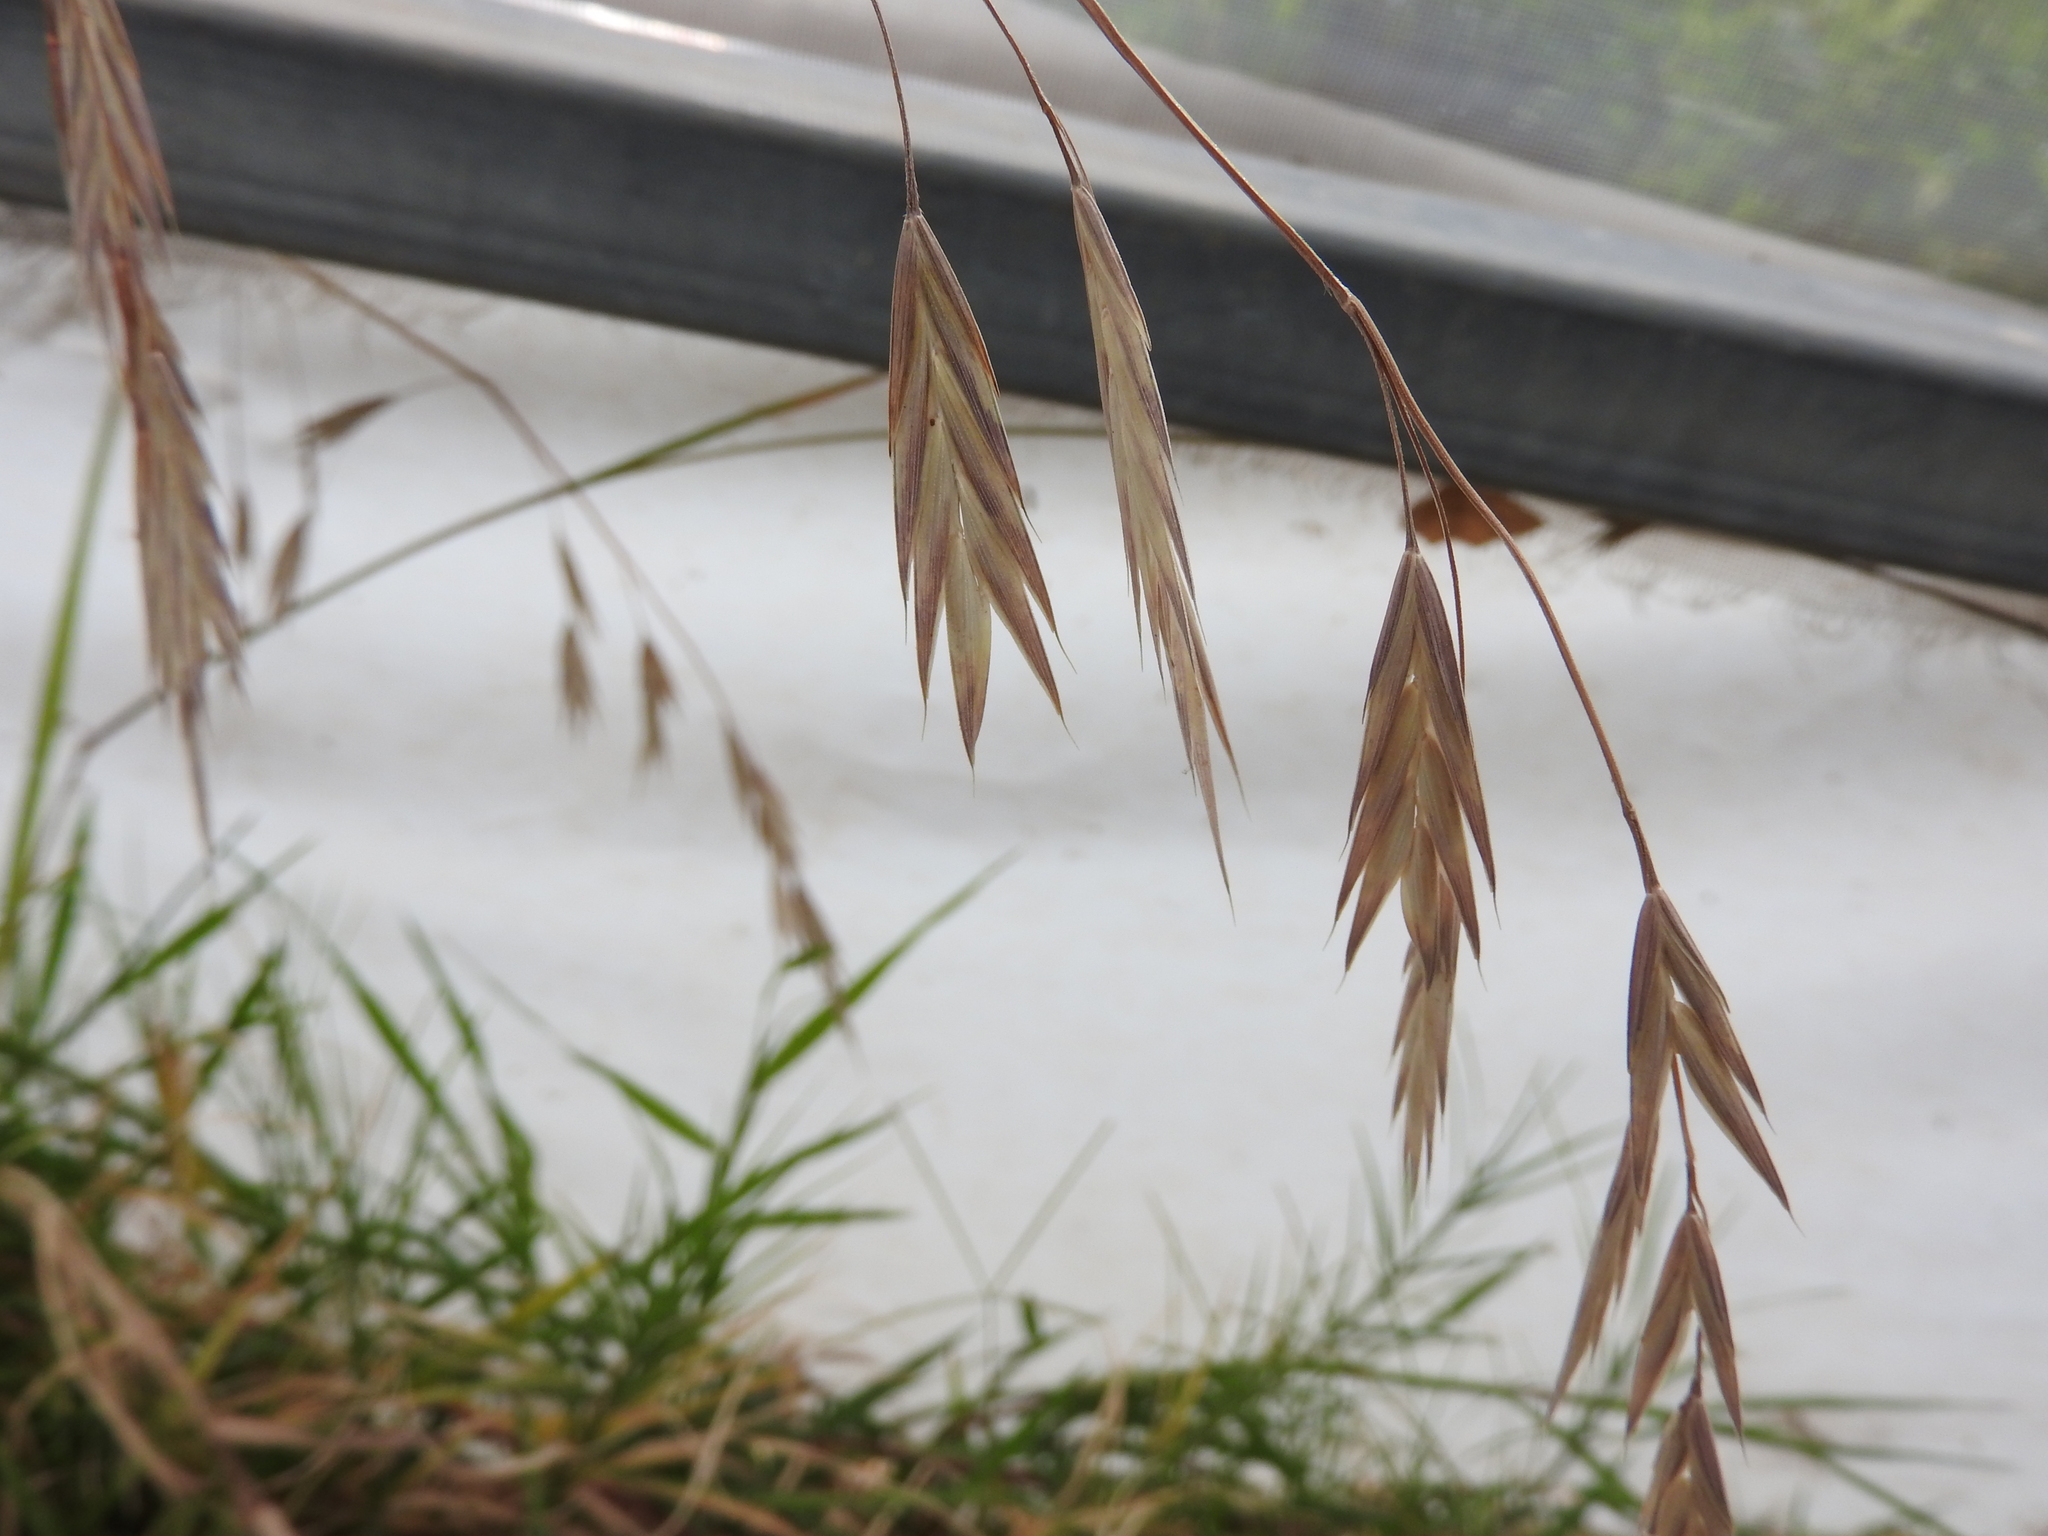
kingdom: Plantae
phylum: Tracheophyta
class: Liliopsida
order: Poales
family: Poaceae
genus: Bromus
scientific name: Bromus catharticus
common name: Rescuegrass
